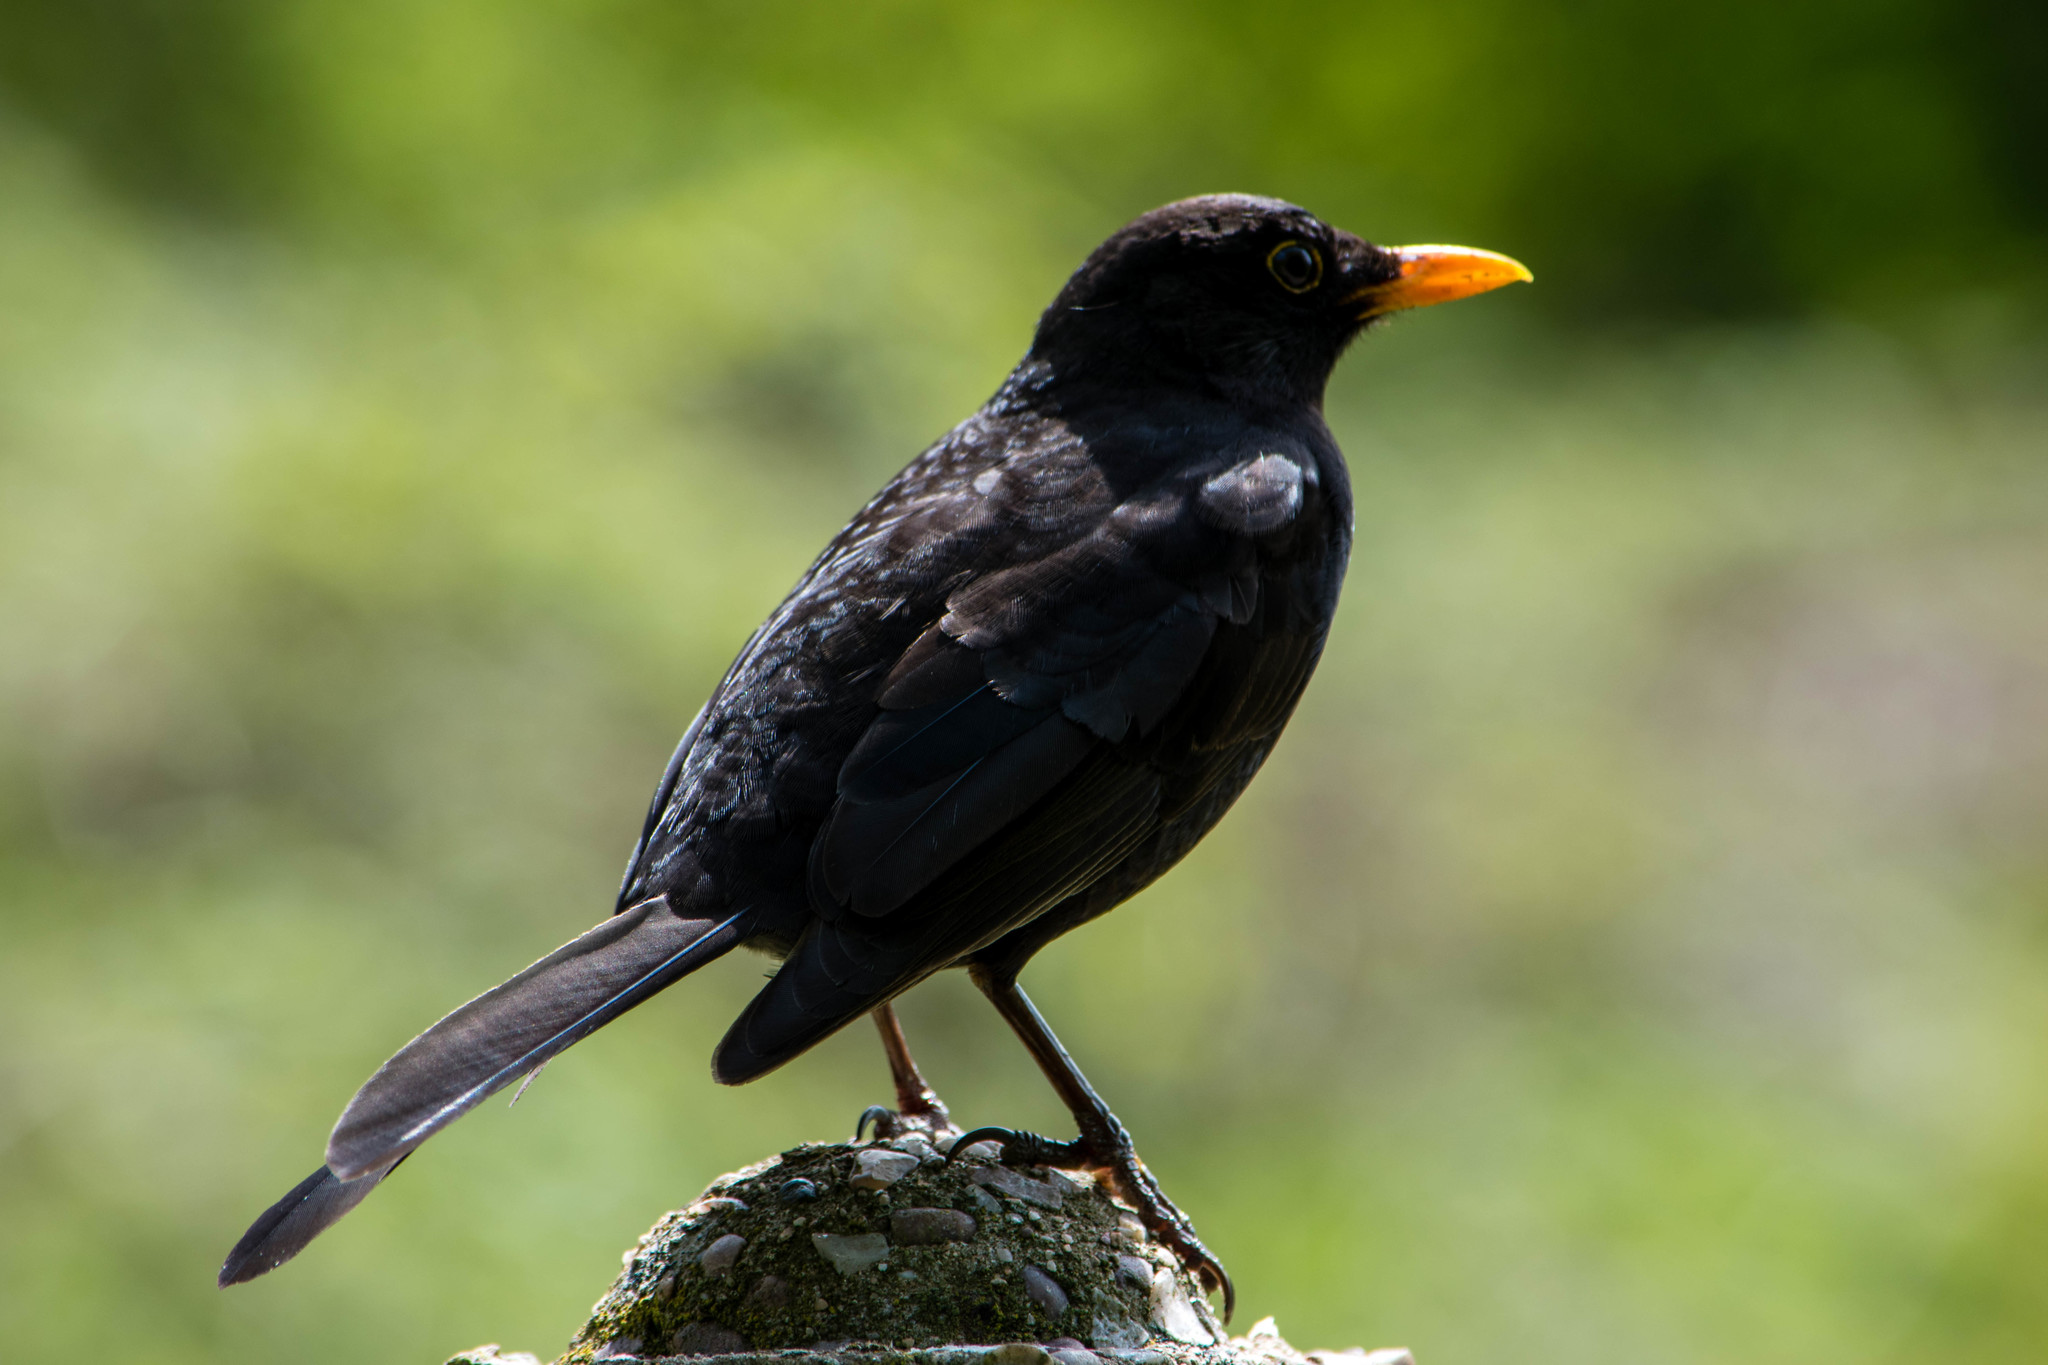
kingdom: Animalia
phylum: Chordata
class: Aves
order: Passeriformes
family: Turdidae
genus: Turdus
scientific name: Turdus merula
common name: Common blackbird
